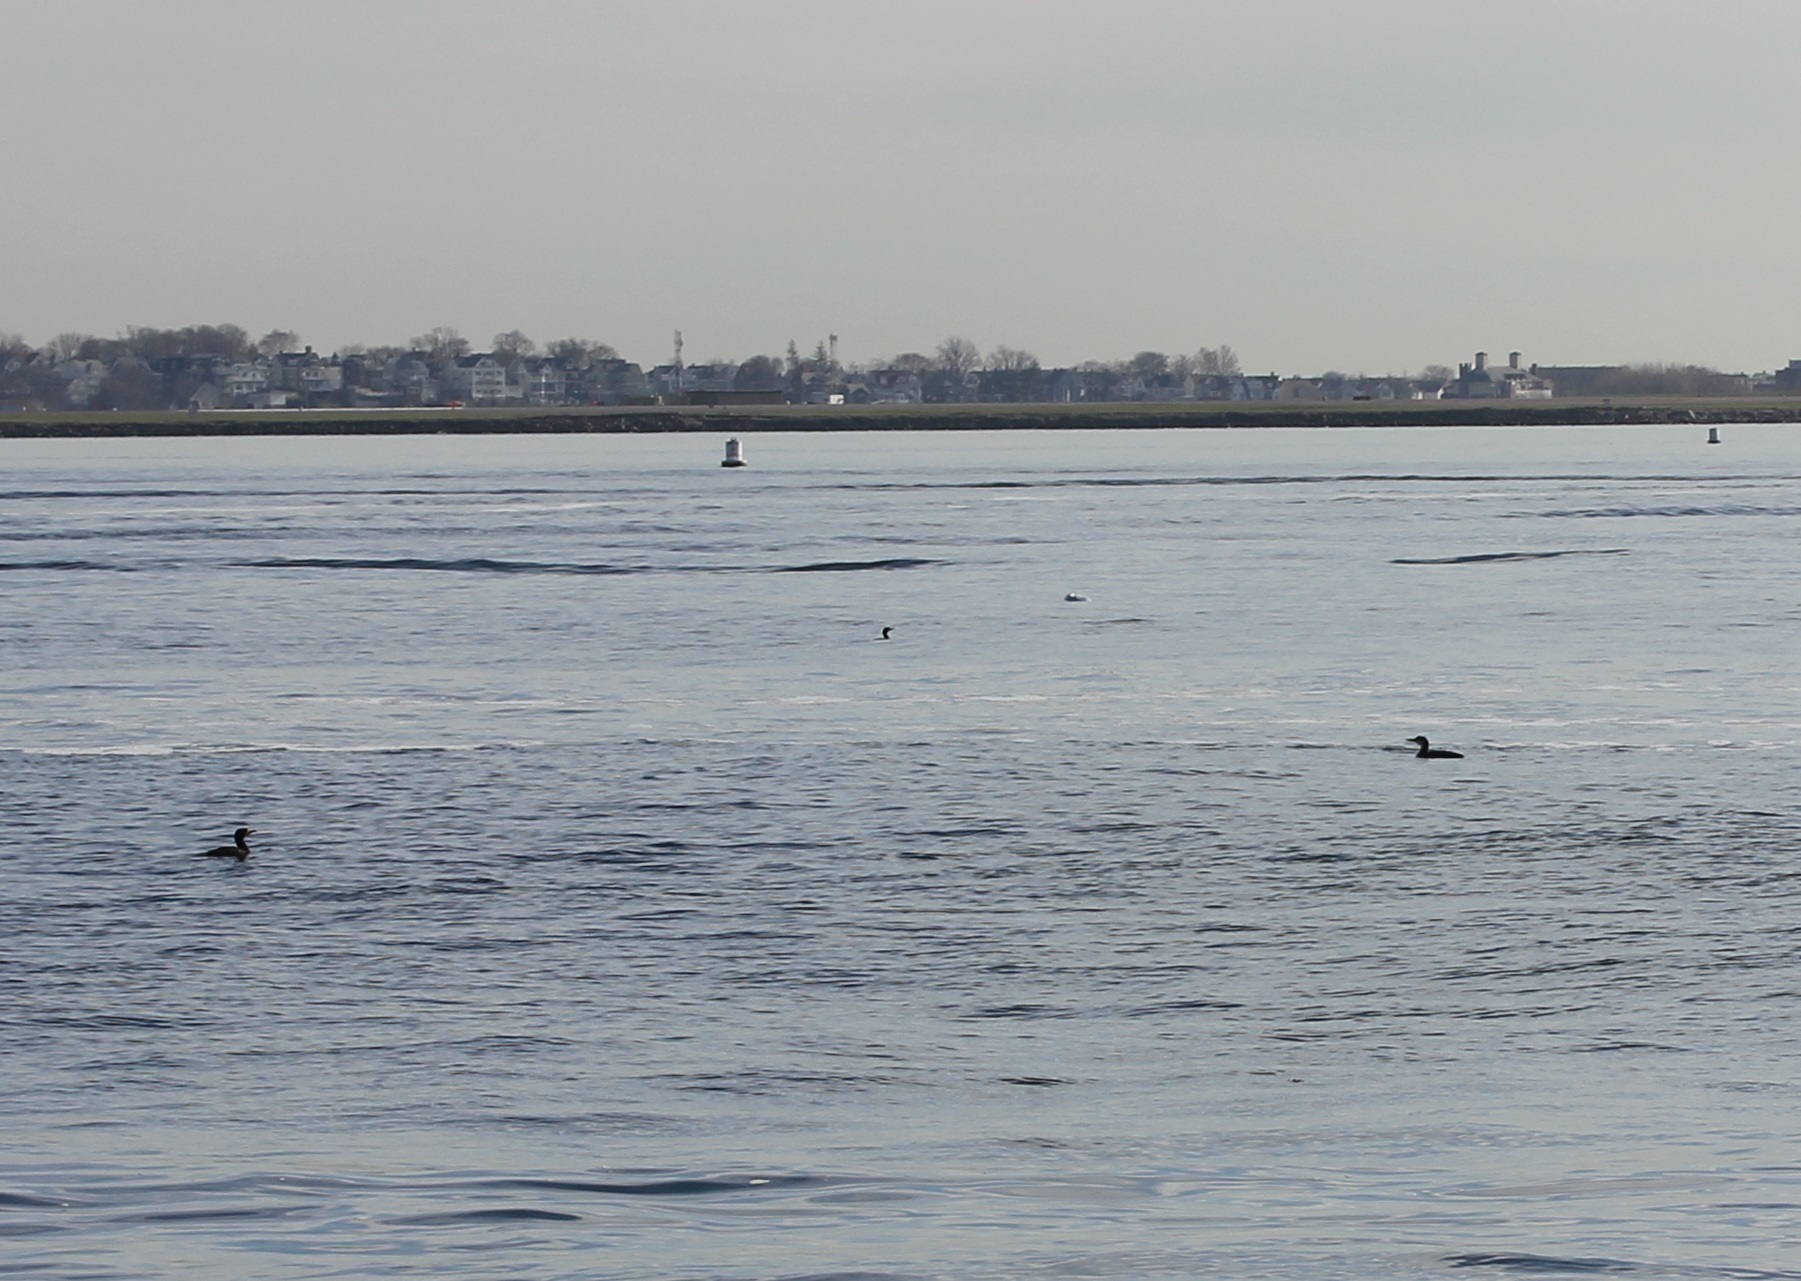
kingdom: Animalia
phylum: Chordata
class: Aves
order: Suliformes
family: Phalacrocoracidae
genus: Phalacrocorax
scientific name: Phalacrocorax auritus
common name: Double-crested cormorant
